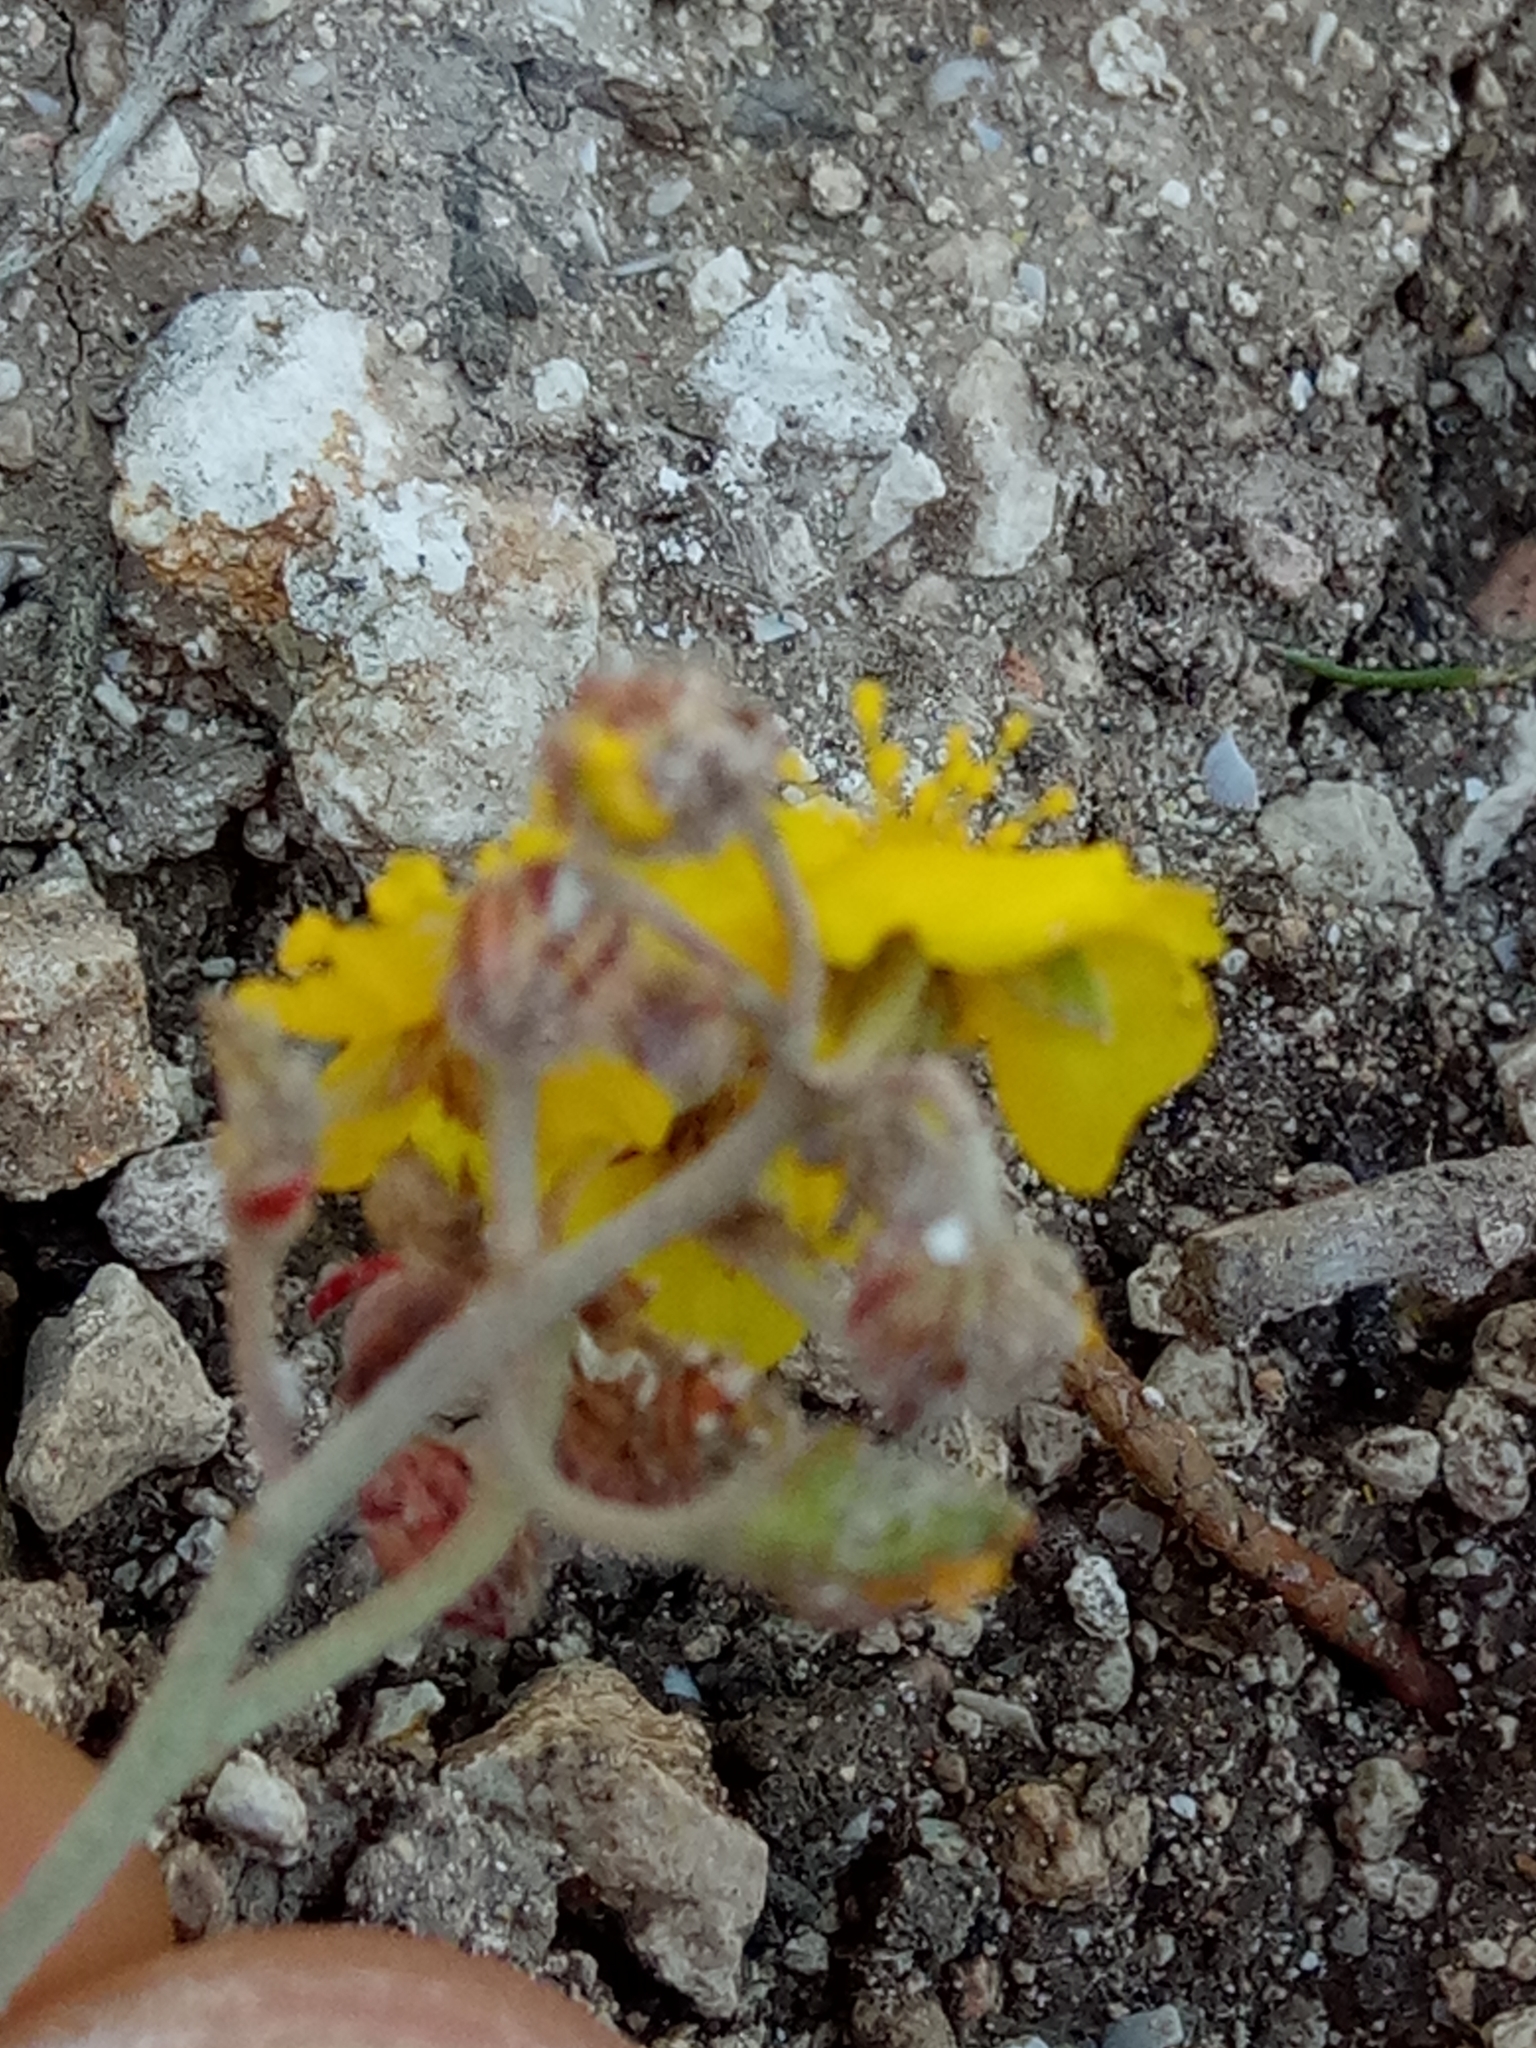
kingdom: Plantae
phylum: Tracheophyta
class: Magnoliopsida
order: Malvales
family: Cistaceae
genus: Helianthemum
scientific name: Helianthemum cinereum
